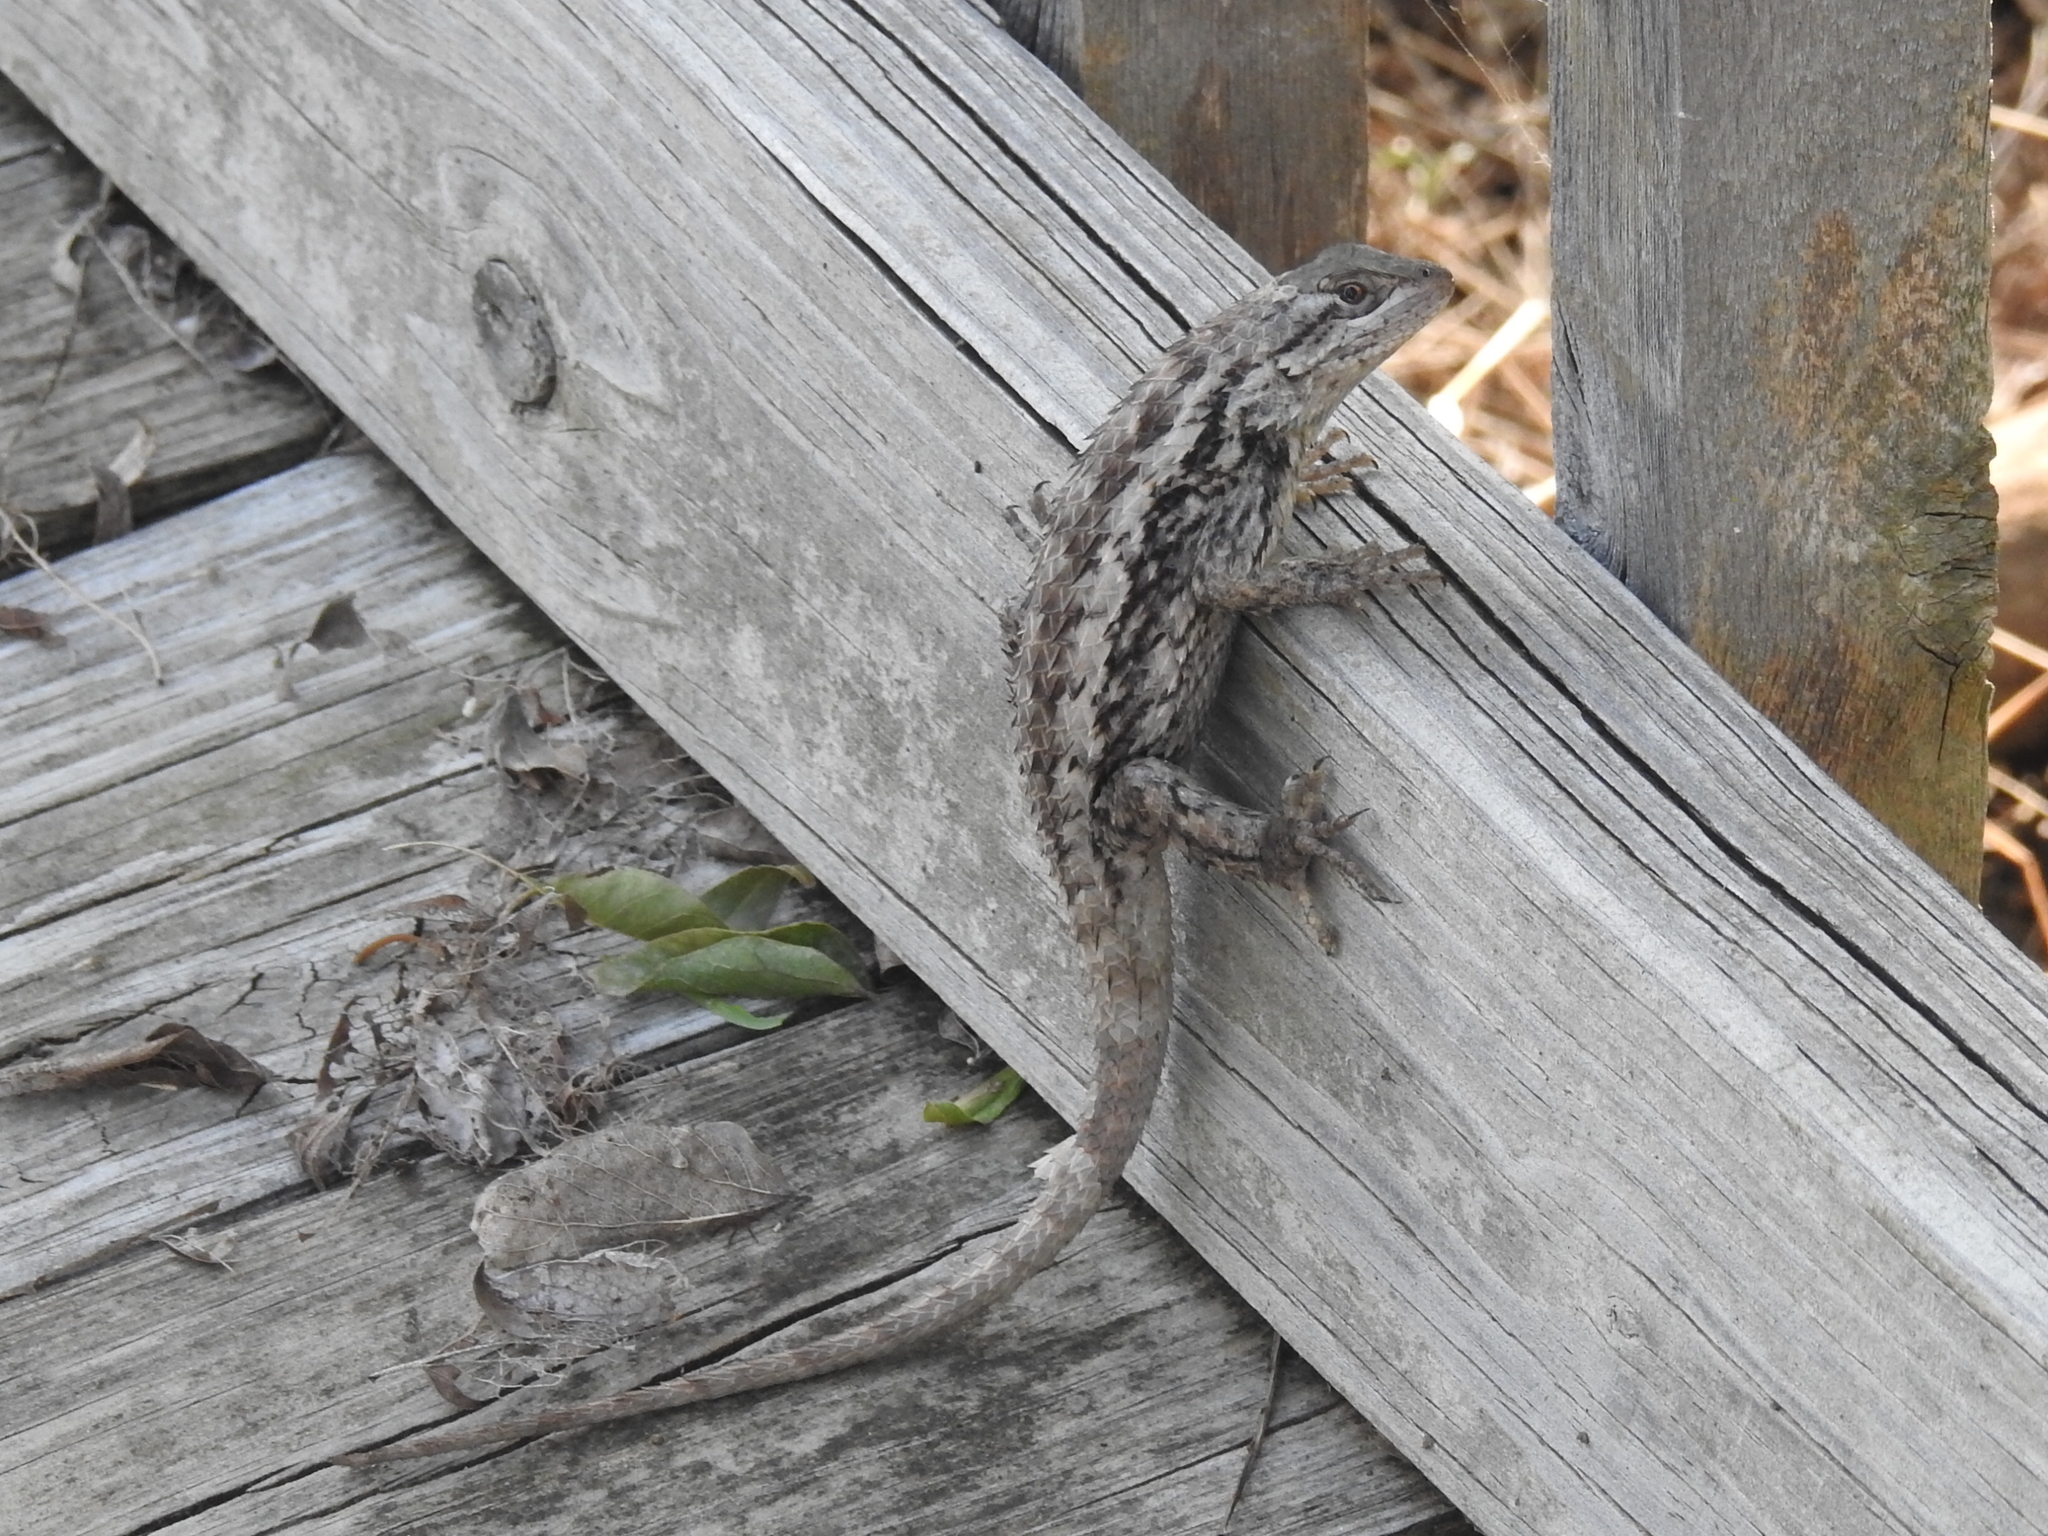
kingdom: Animalia
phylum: Chordata
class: Squamata
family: Phrynosomatidae
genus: Sceloporus
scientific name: Sceloporus olivaceus
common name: Texas spiny lizard
